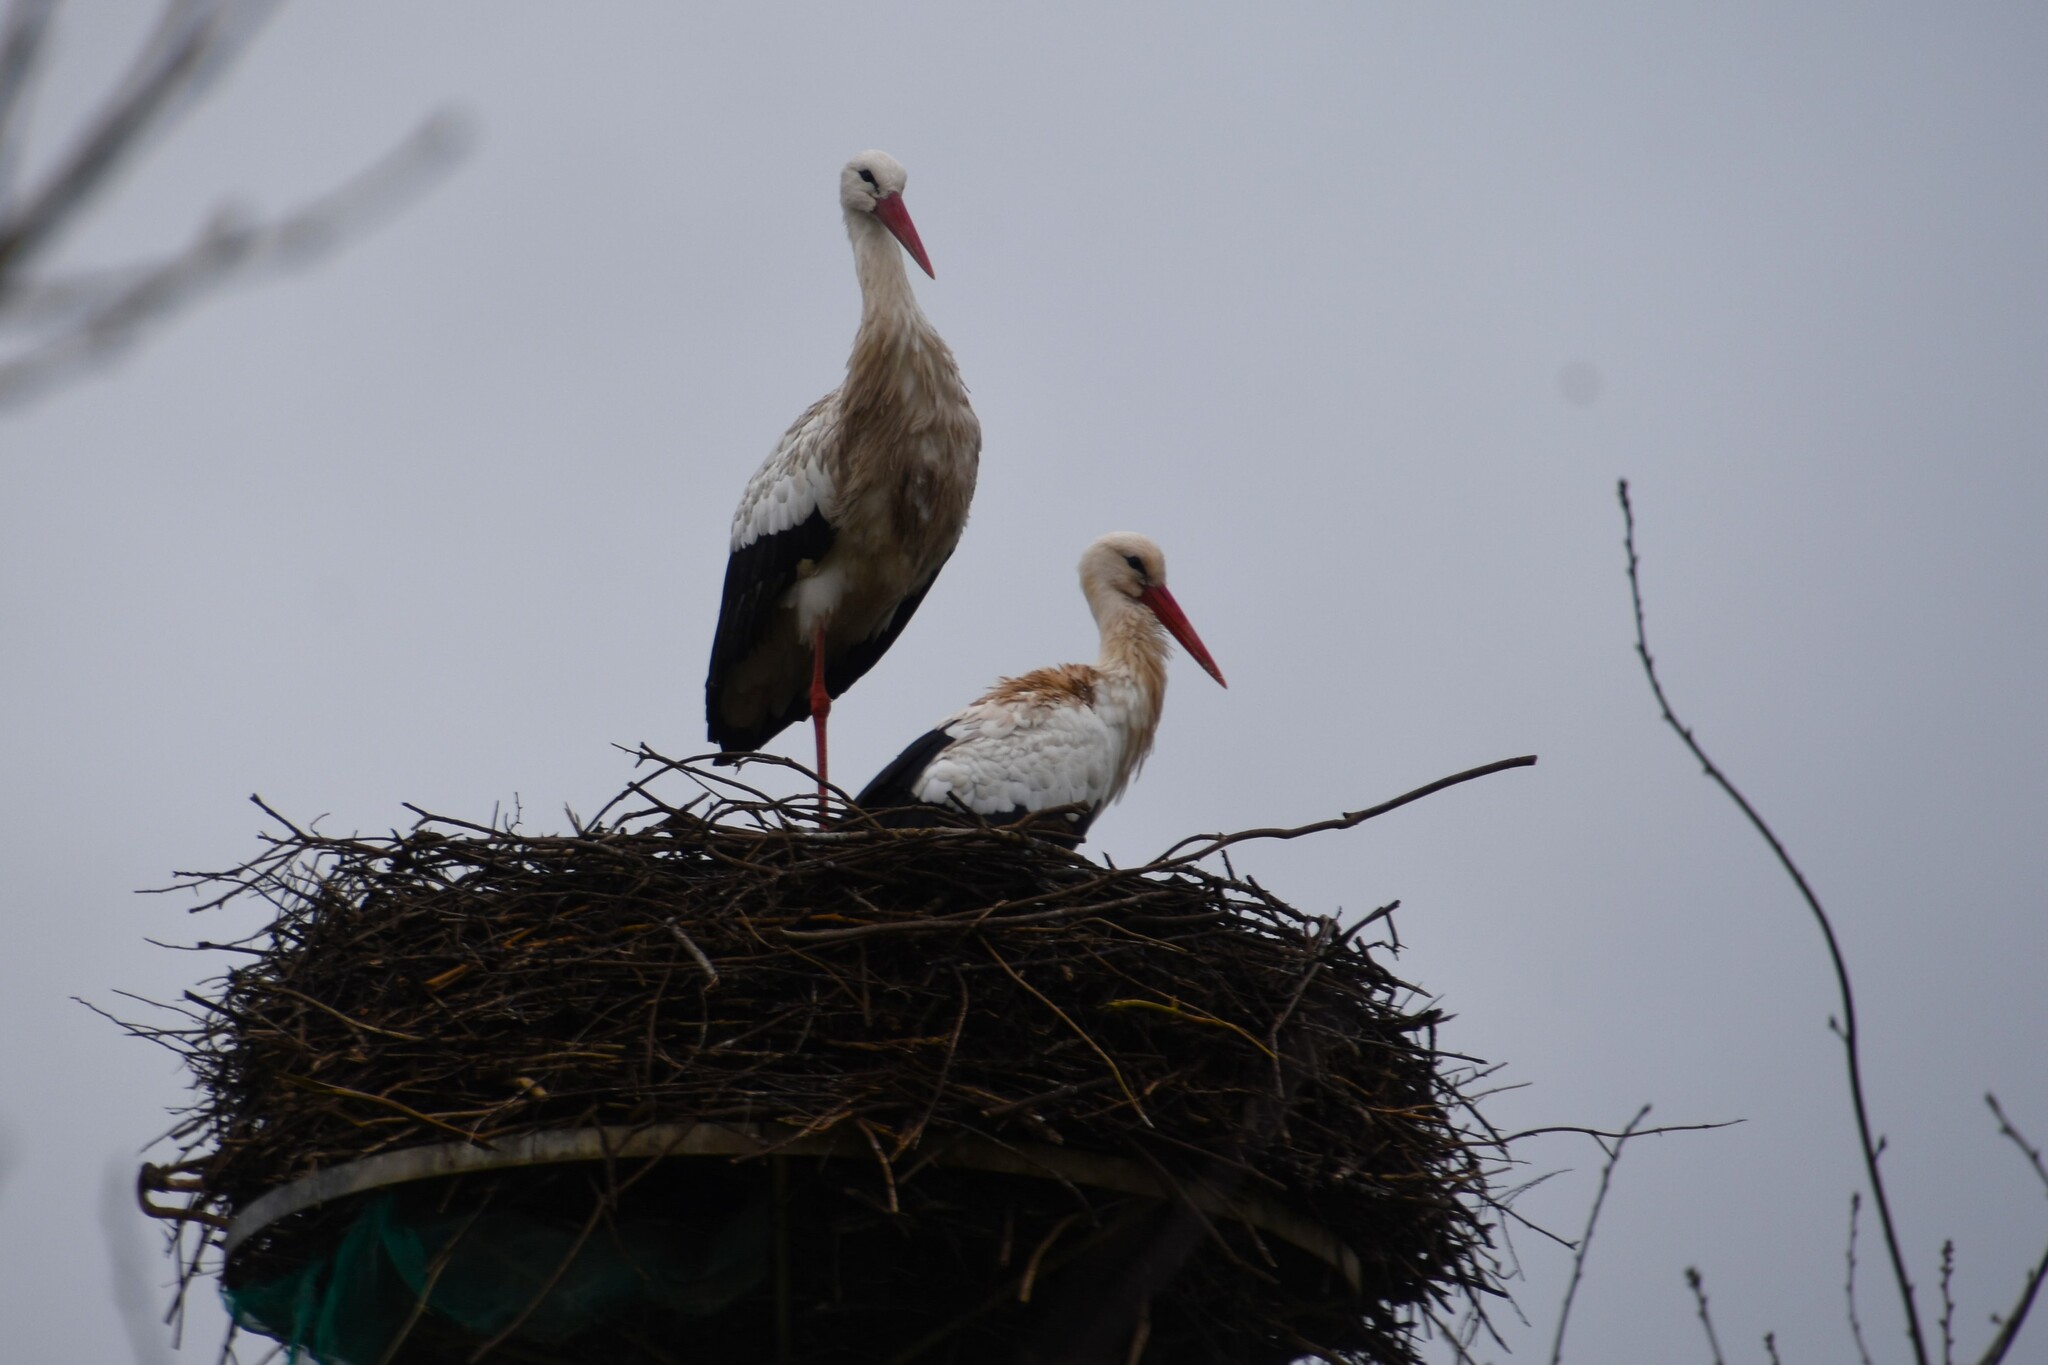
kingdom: Animalia
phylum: Chordata
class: Aves
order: Ciconiiformes
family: Ciconiidae
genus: Ciconia
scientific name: Ciconia ciconia
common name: White stork
